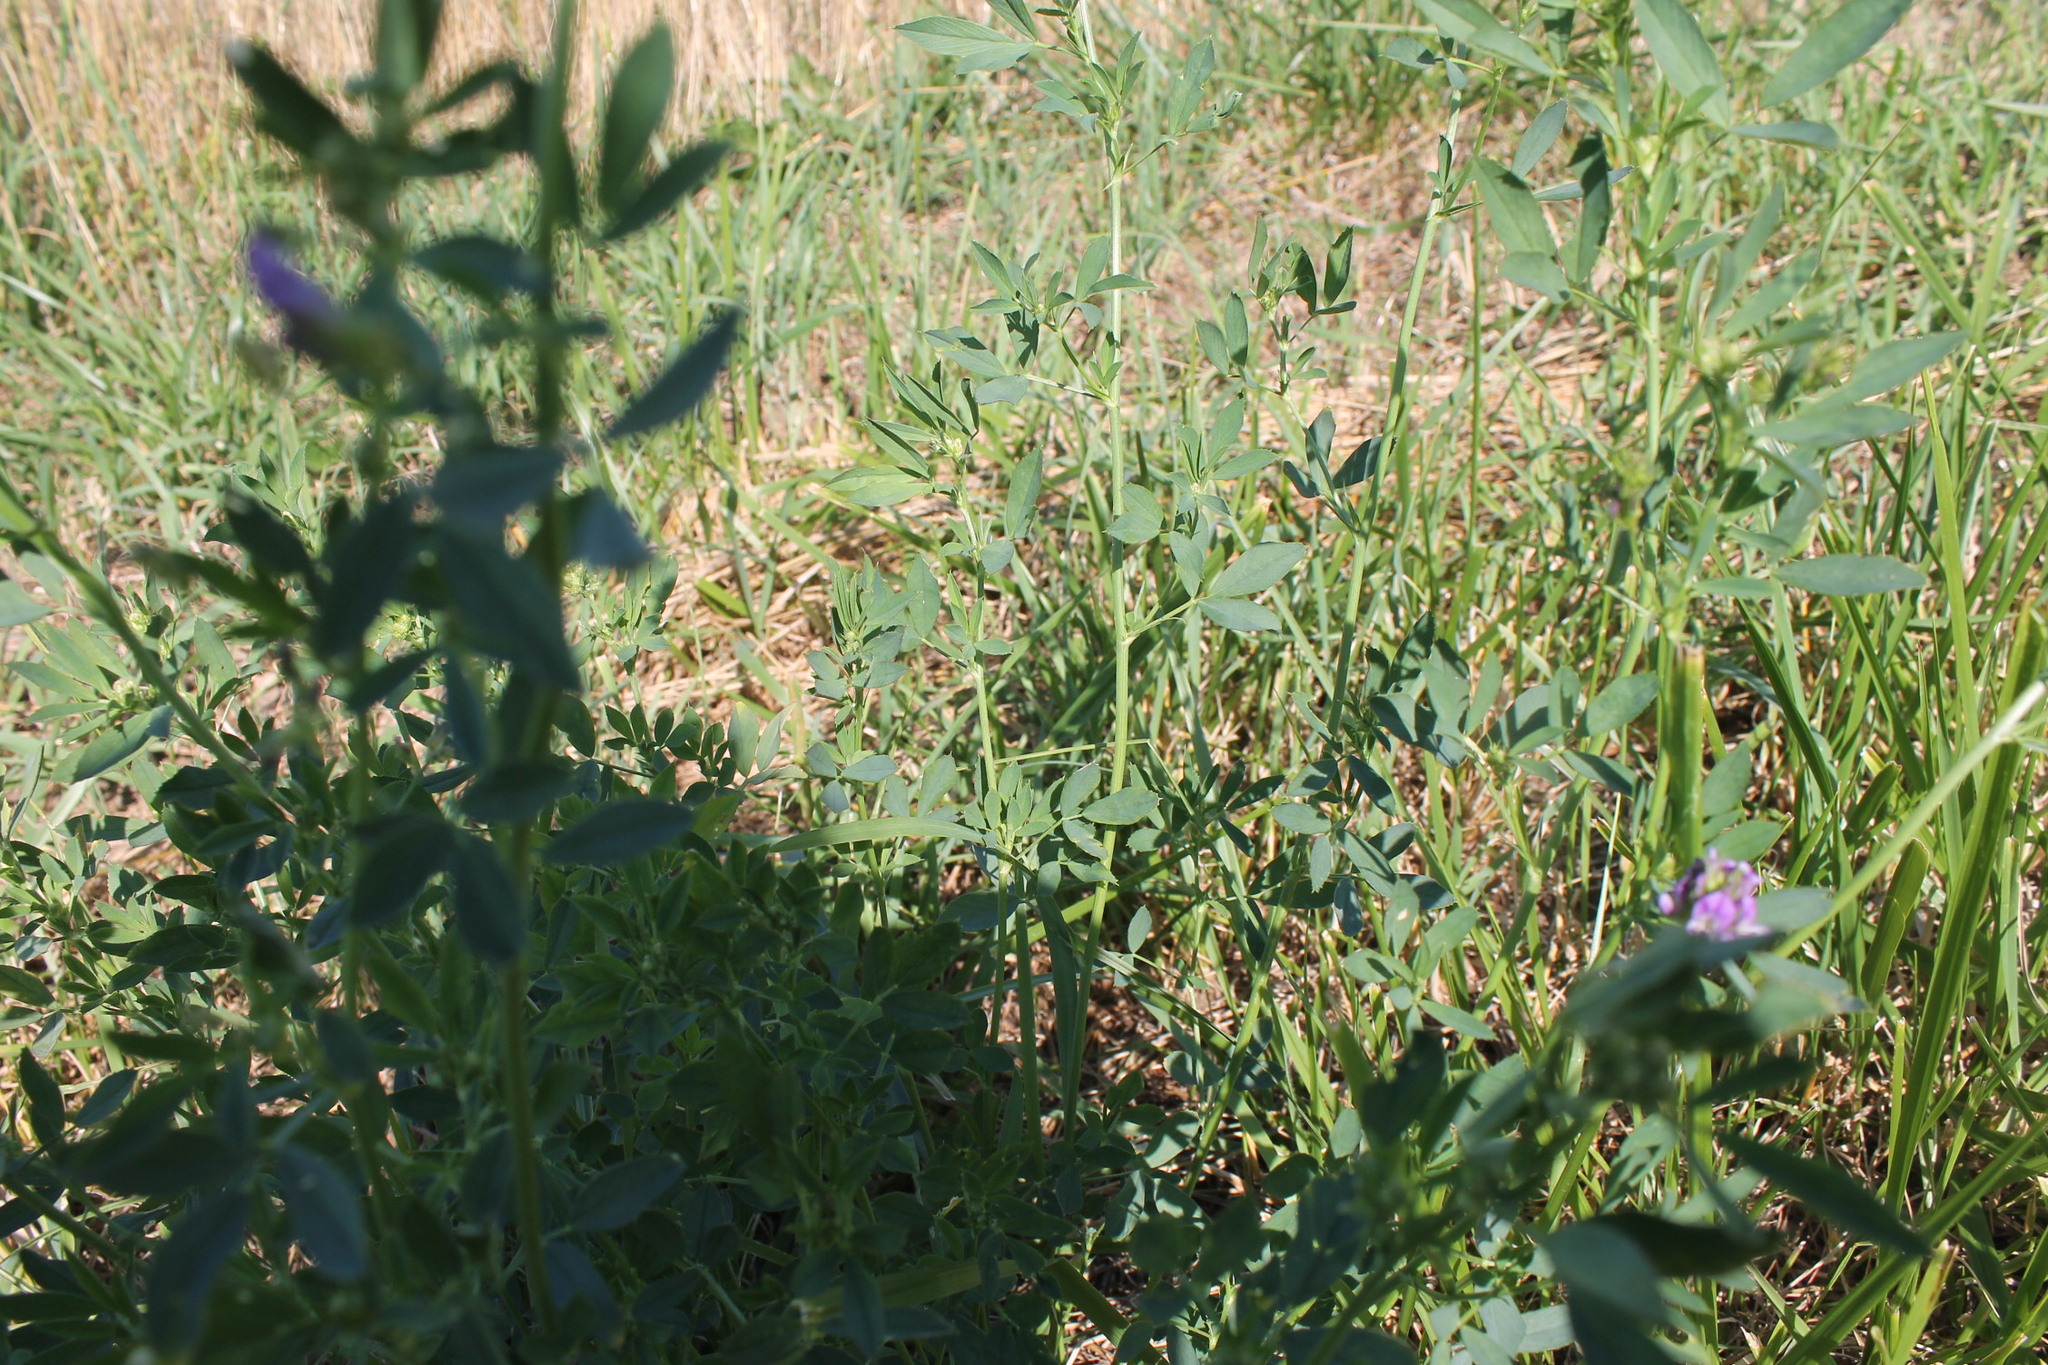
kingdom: Plantae
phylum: Tracheophyta
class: Magnoliopsida
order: Fabales
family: Fabaceae
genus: Medicago
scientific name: Medicago sativa
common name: Alfalfa
